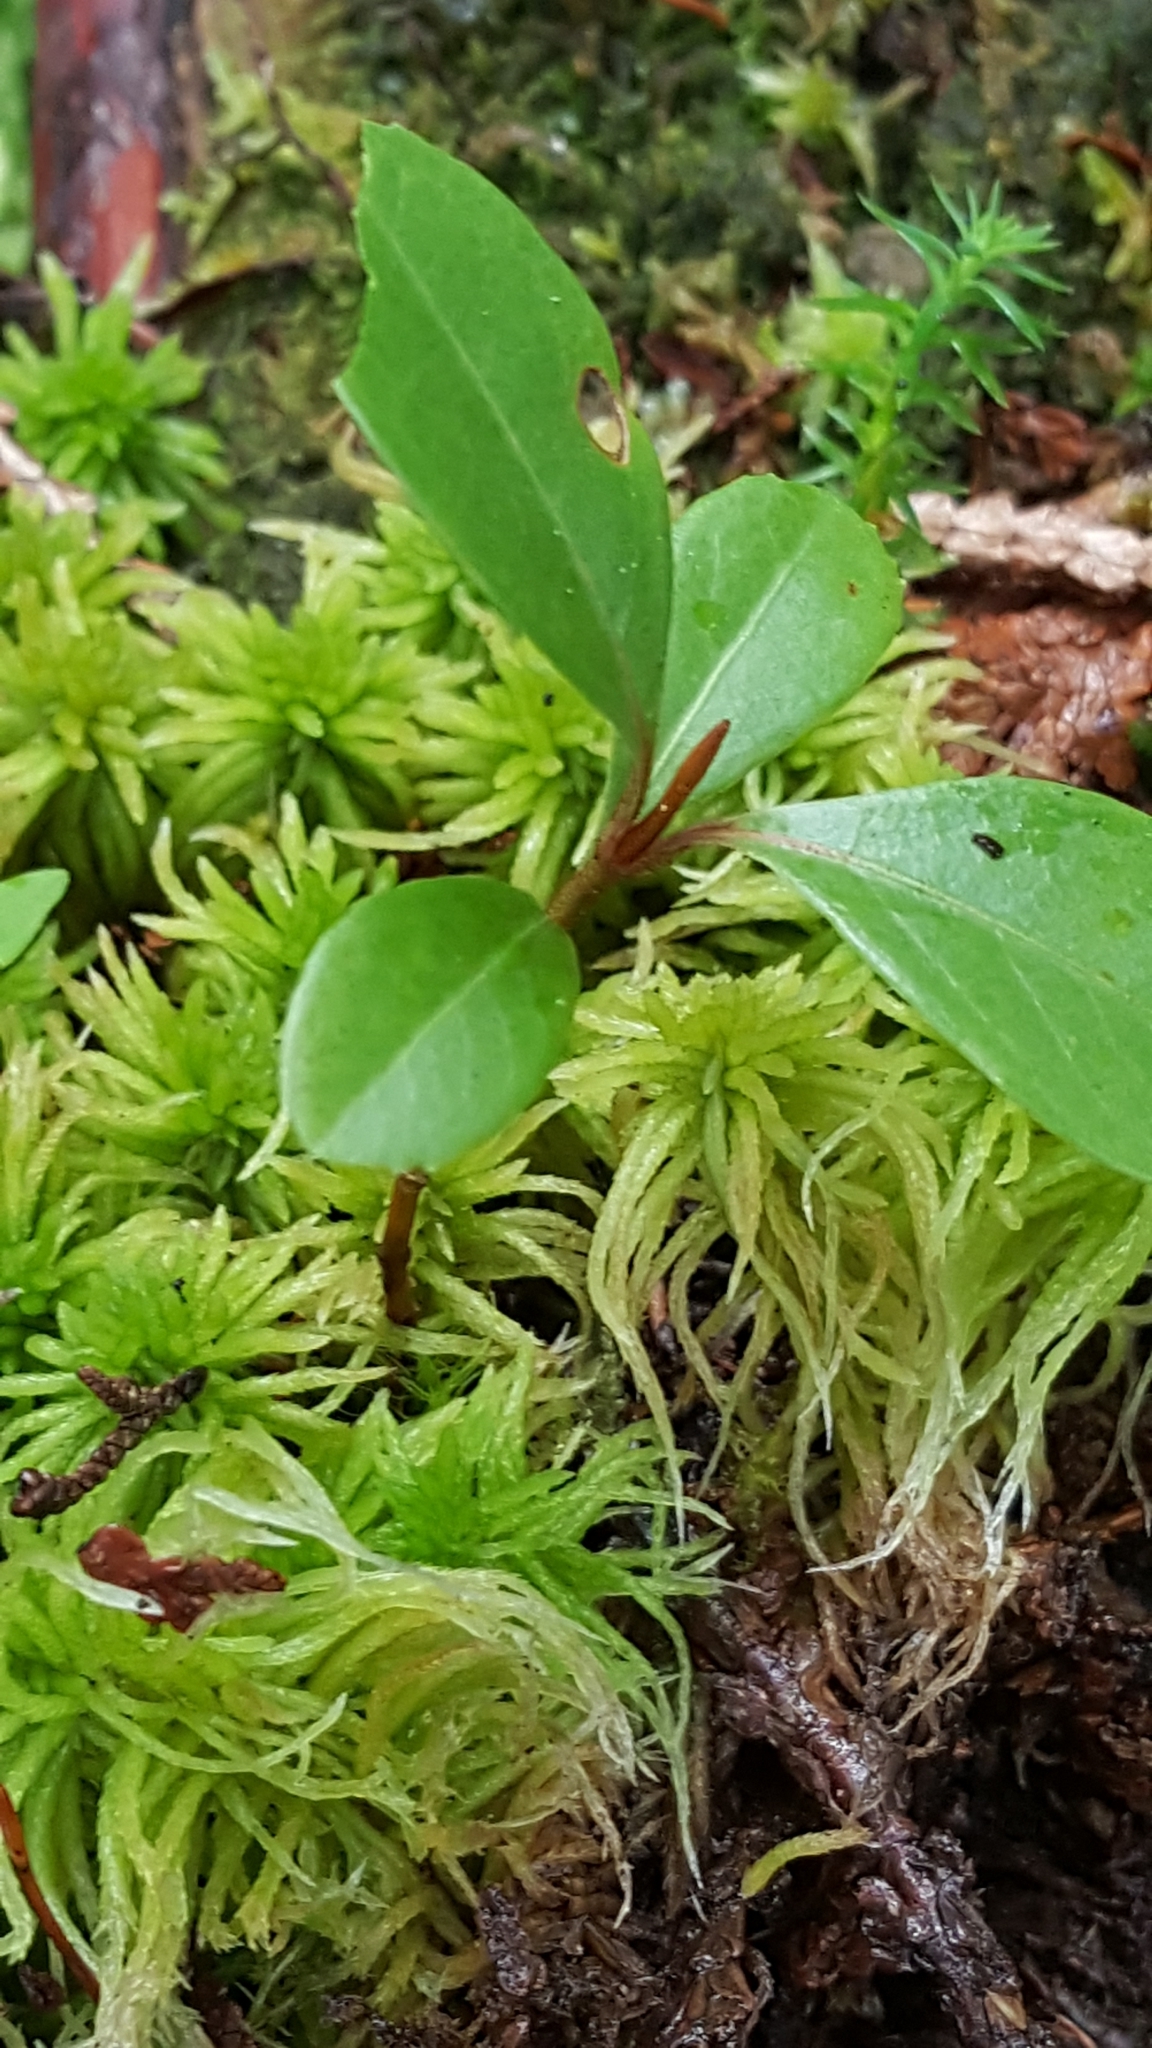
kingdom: Plantae
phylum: Tracheophyta
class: Magnoliopsida
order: Ericales
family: Ericaceae
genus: Gaultheria
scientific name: Gaultheria procumbens
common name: Checkerberry
